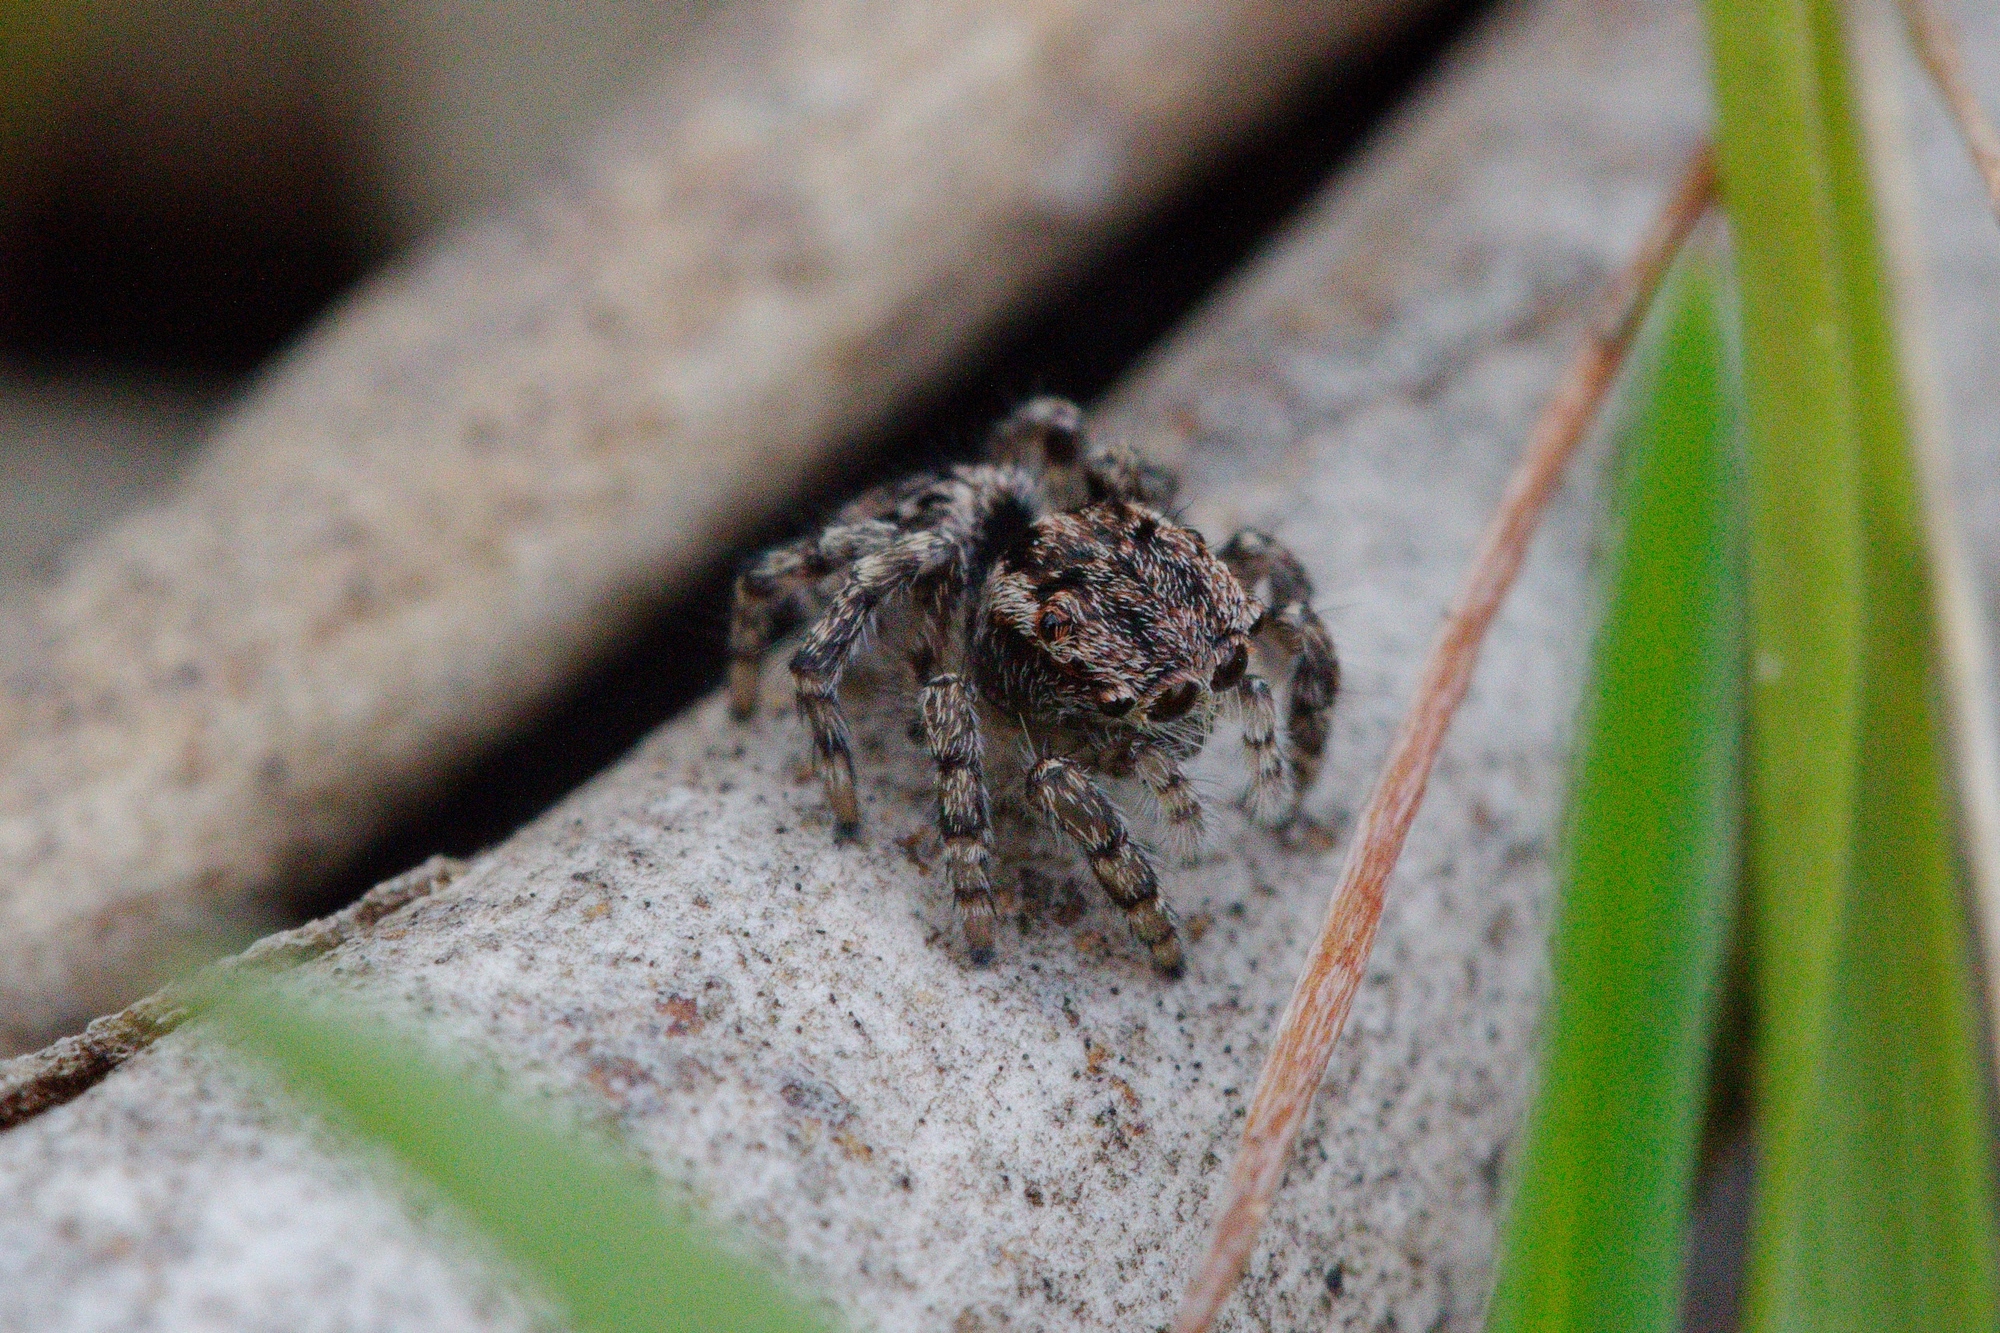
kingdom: Animalia
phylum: Arthropoda
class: Arachnida
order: Araneae
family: Salticidae
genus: Maratus
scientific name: Maratus plumosus
